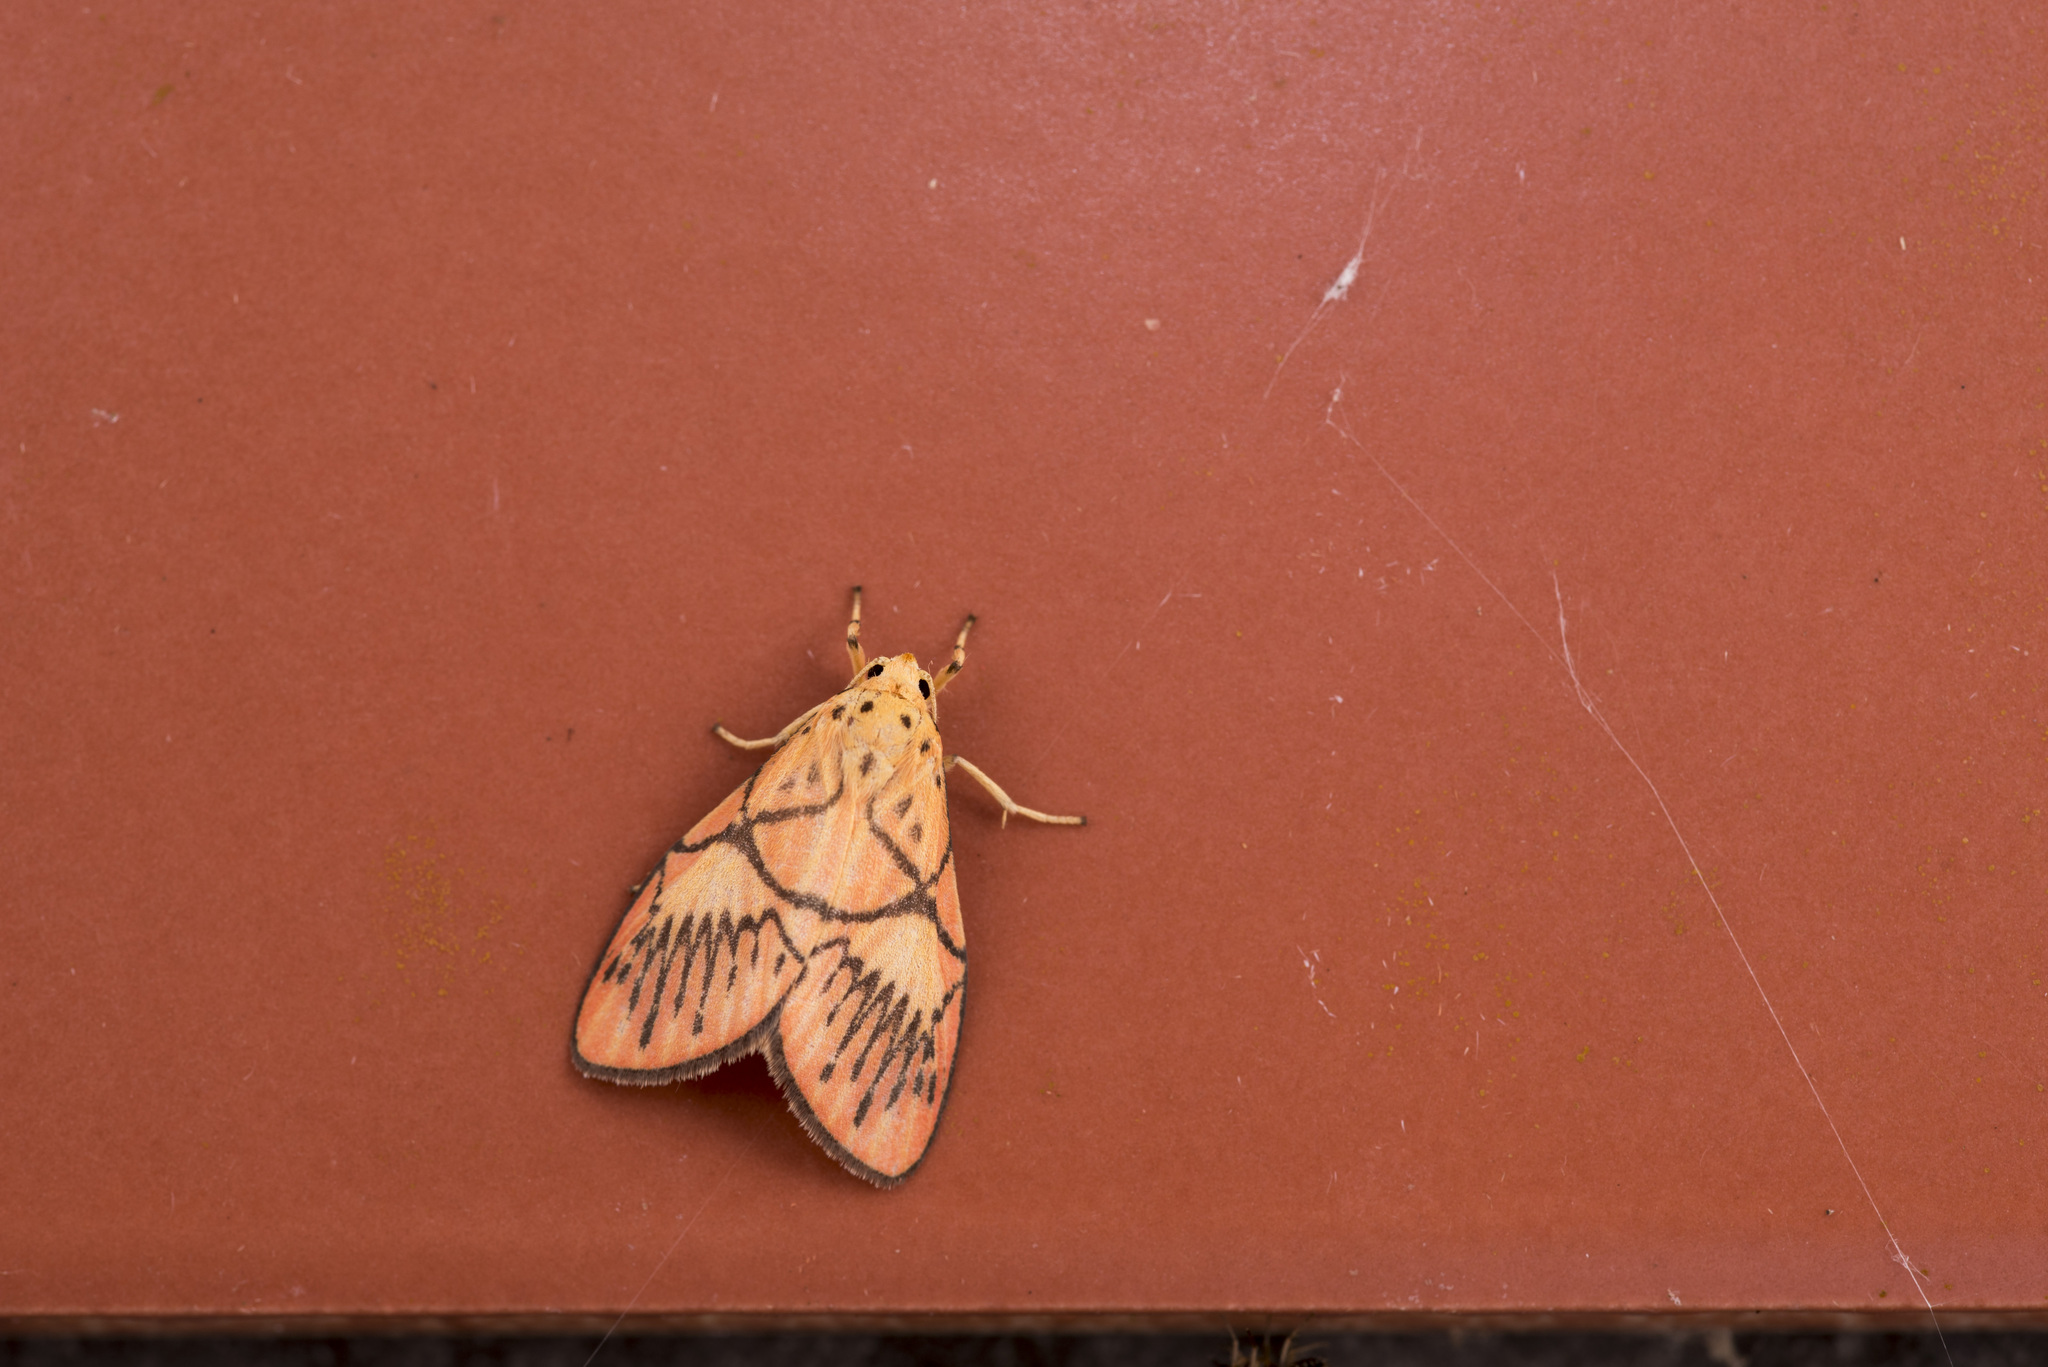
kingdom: Animalia
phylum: Arthropoda
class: Insecta
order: Lepidoptera
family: Erebidae
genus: Aberrasine
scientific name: Aberrasine shiou
